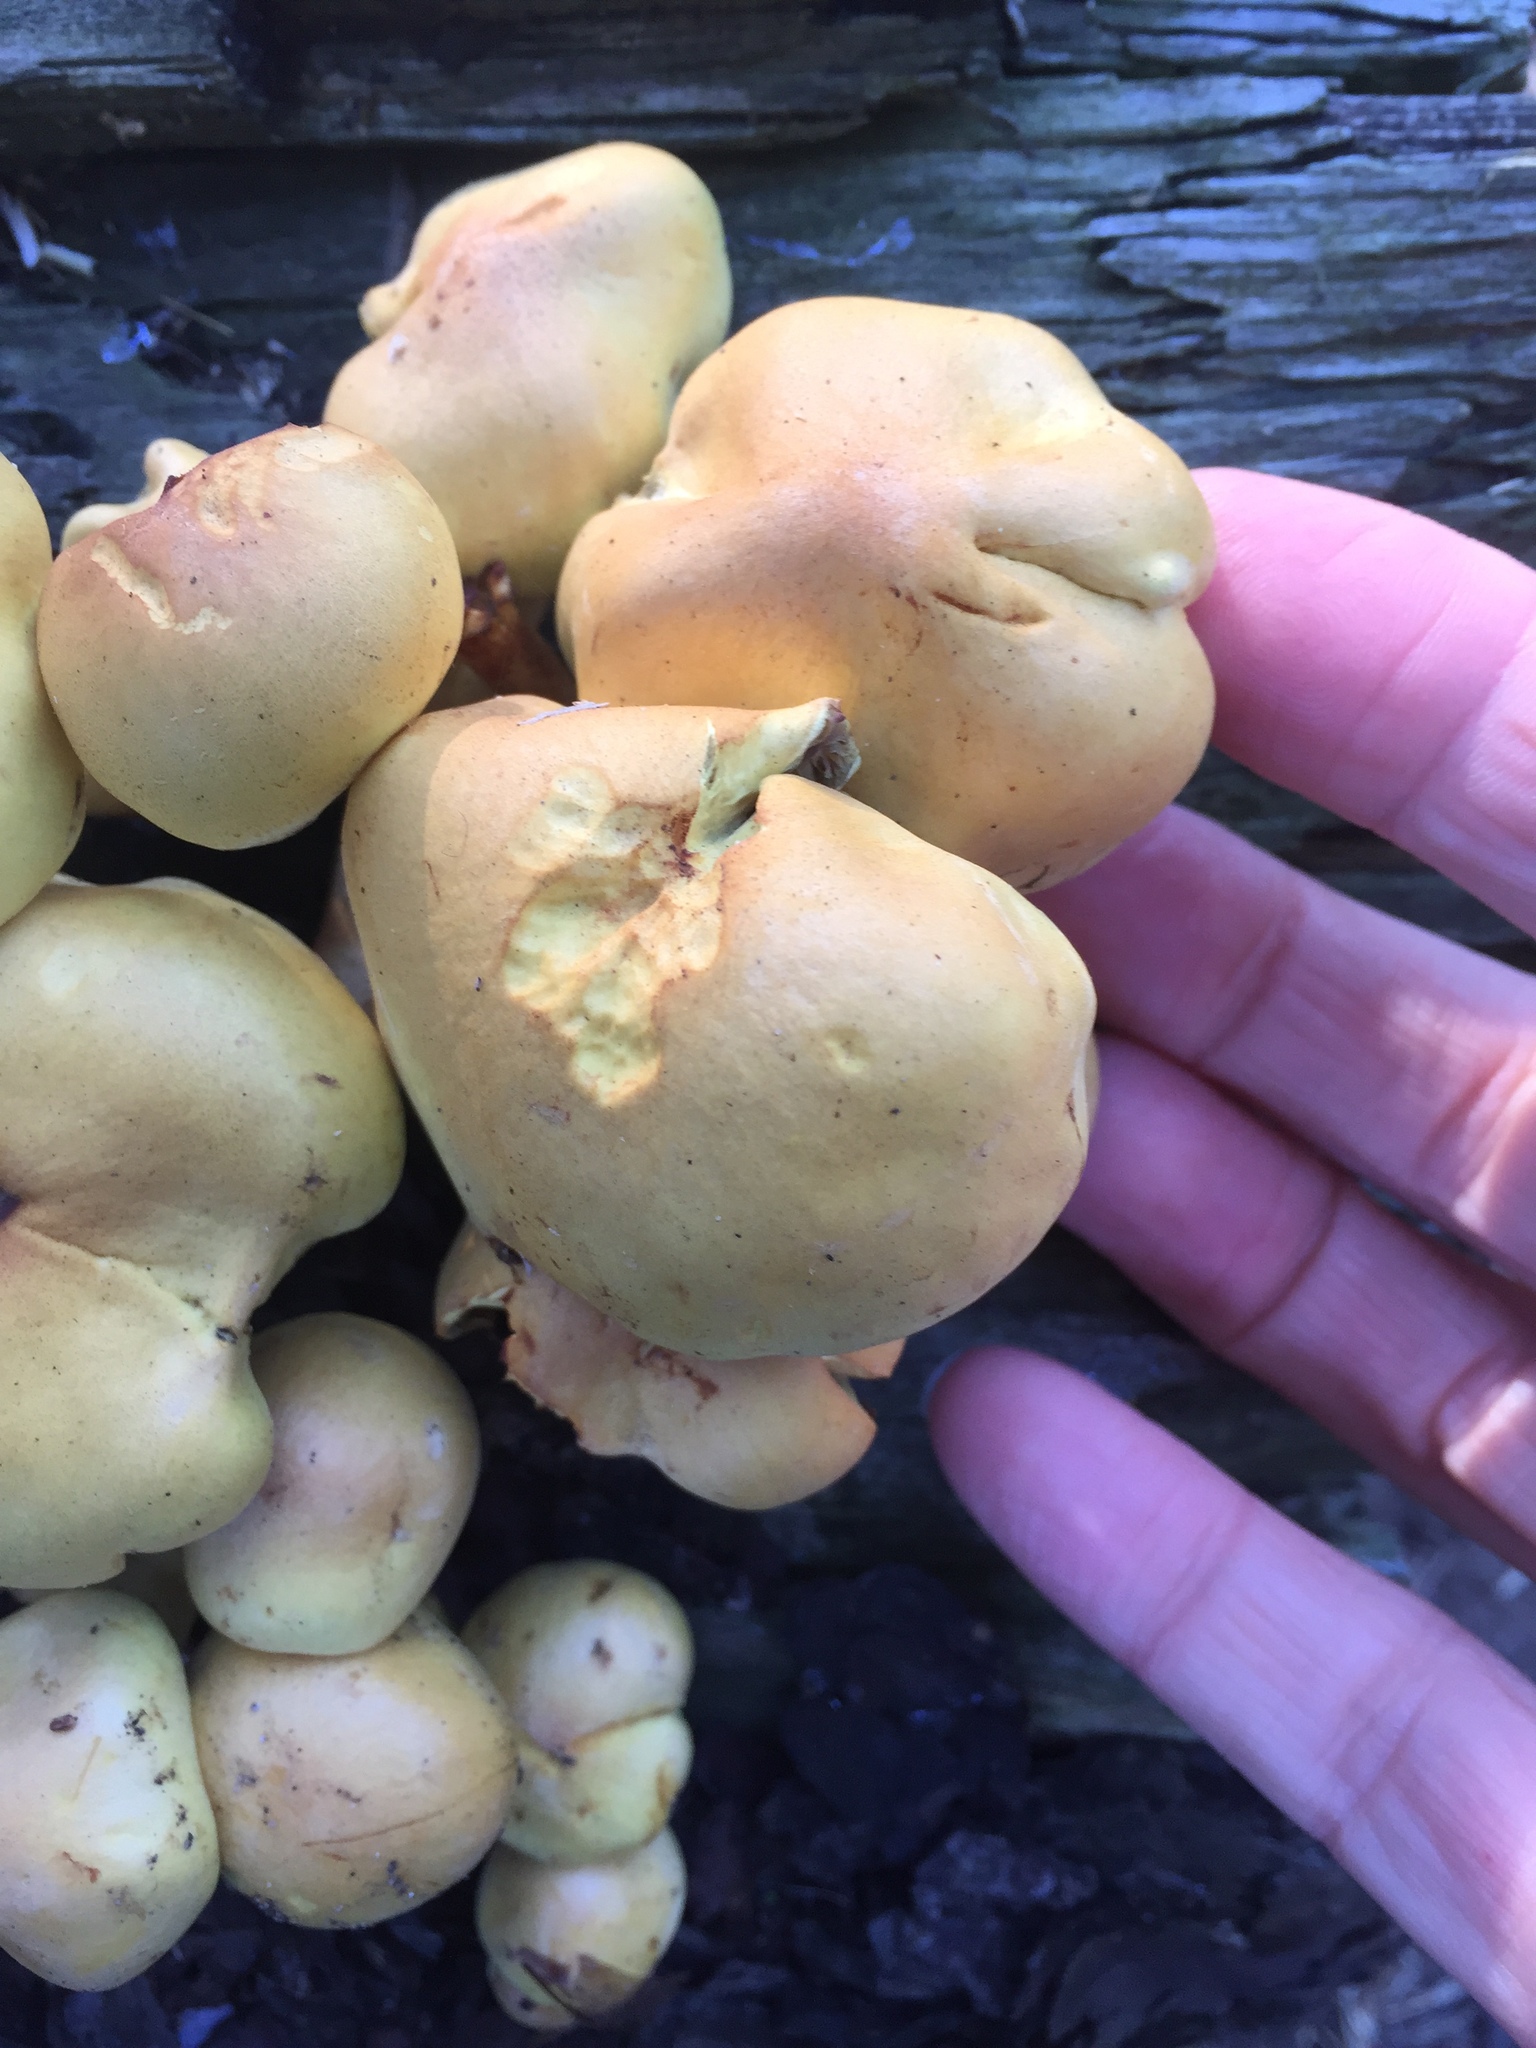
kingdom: Fungi
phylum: Basidiomycota
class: Agaricomycetes
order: Agaricales
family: Strophariaceae
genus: Hypholoma
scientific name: Hypholoma fasciculare
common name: Sulphur tuft
